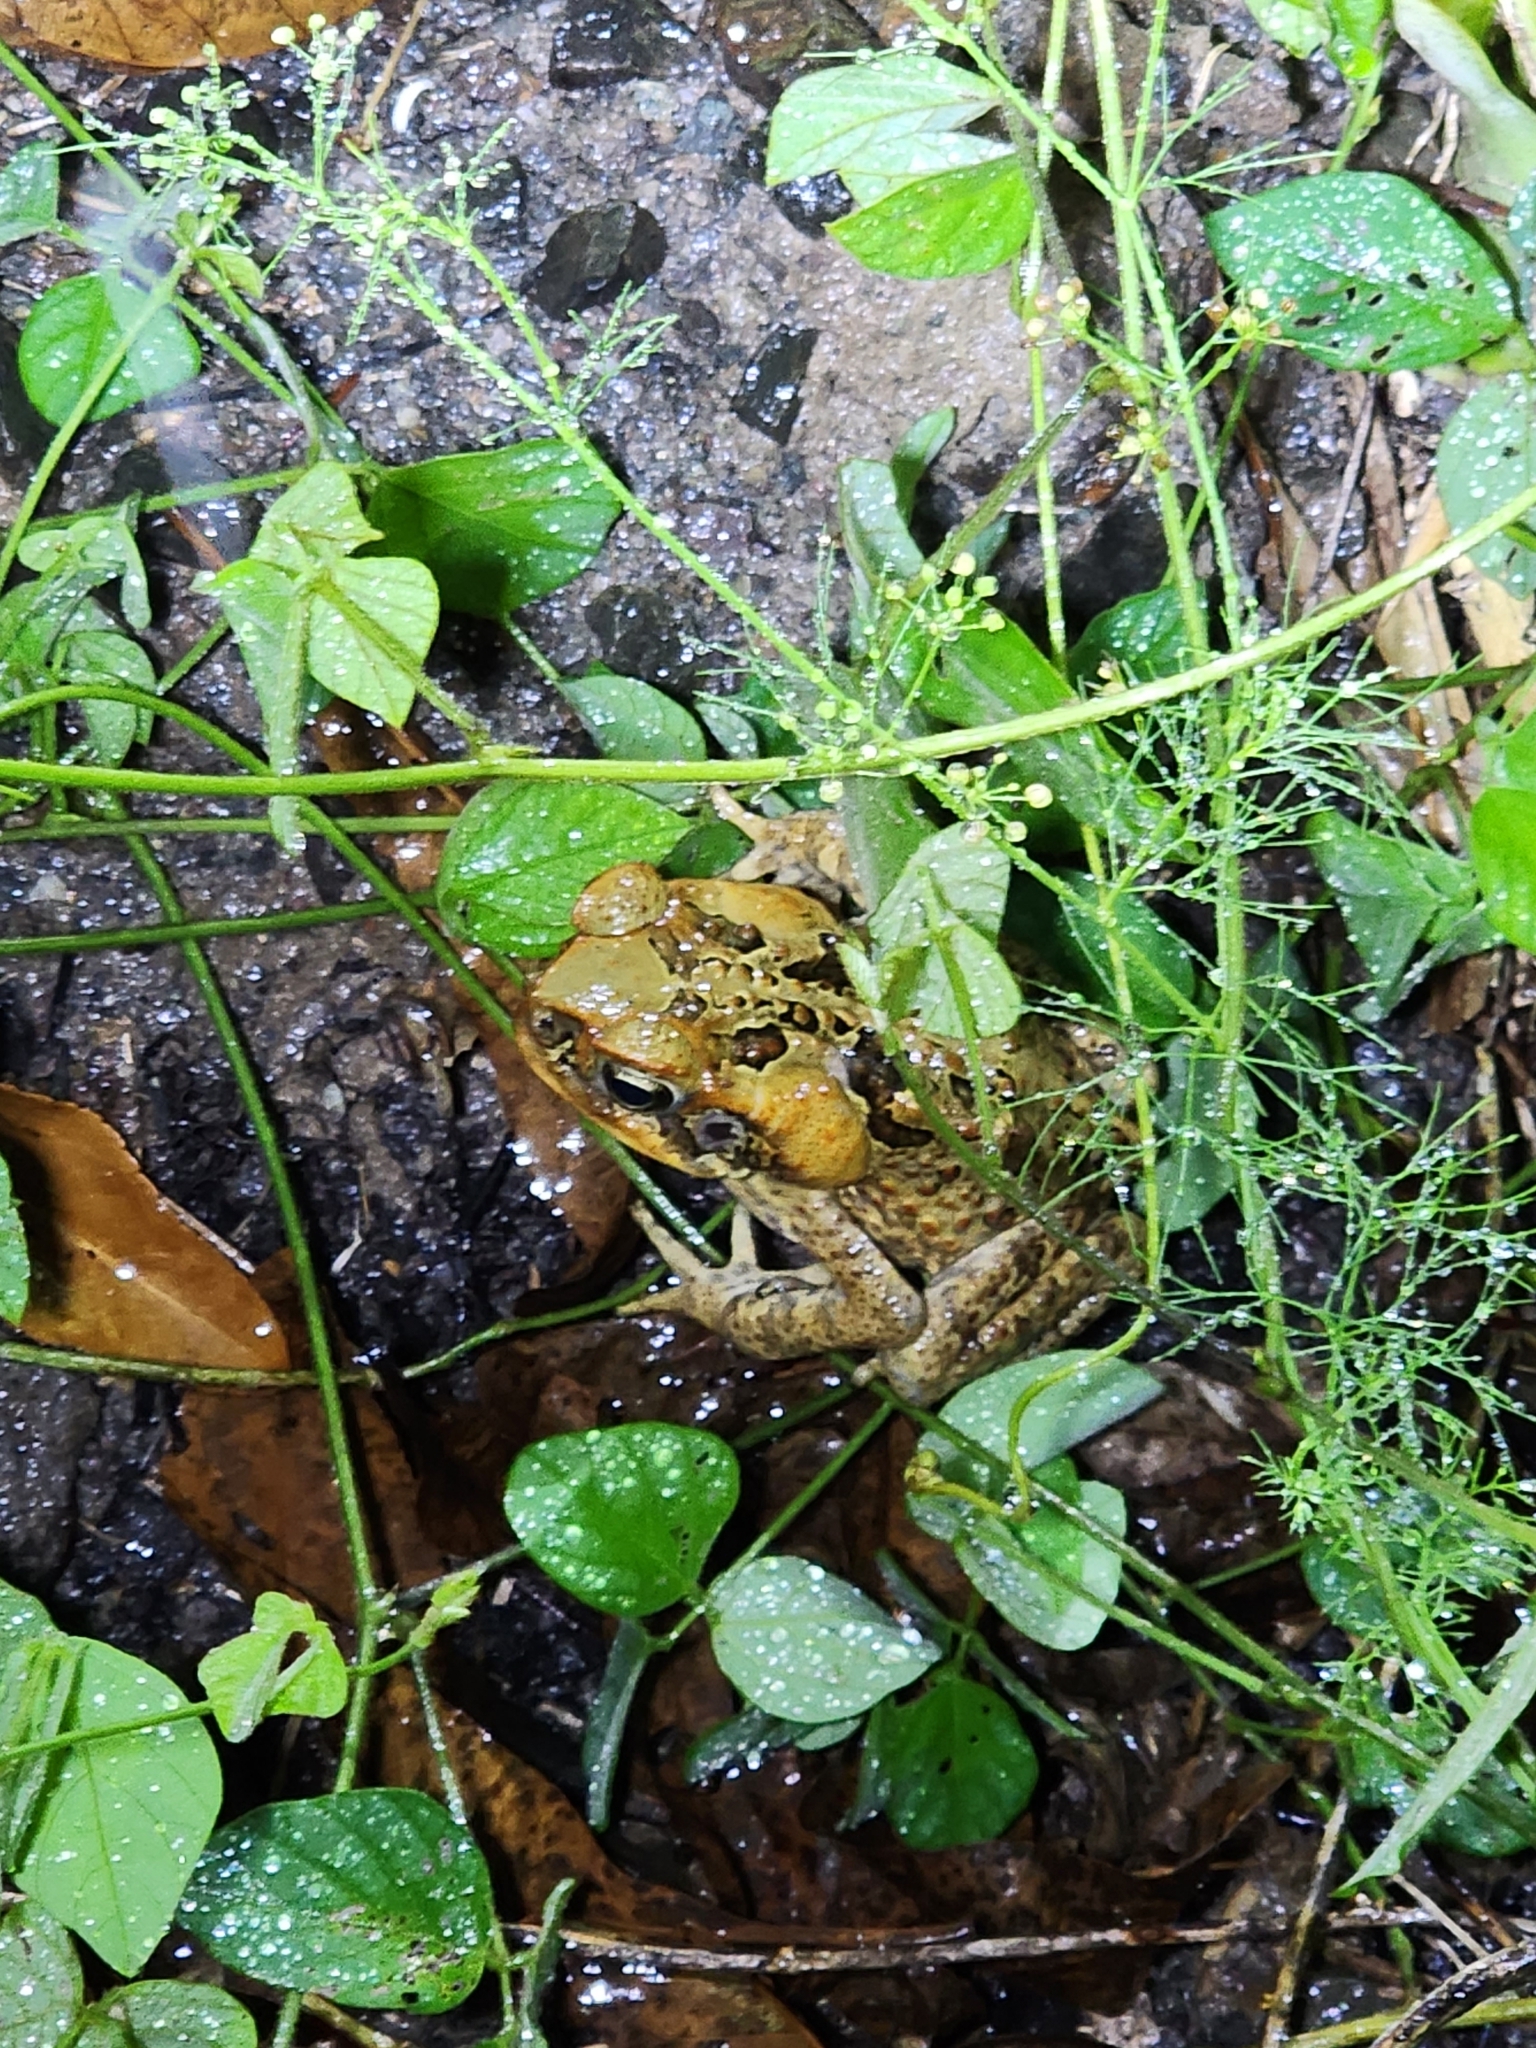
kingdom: Animalia
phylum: Chordata
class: Amphibia
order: Anura
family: Bufonidae
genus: Rhinella
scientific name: Rhinella marina
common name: Cane toad
